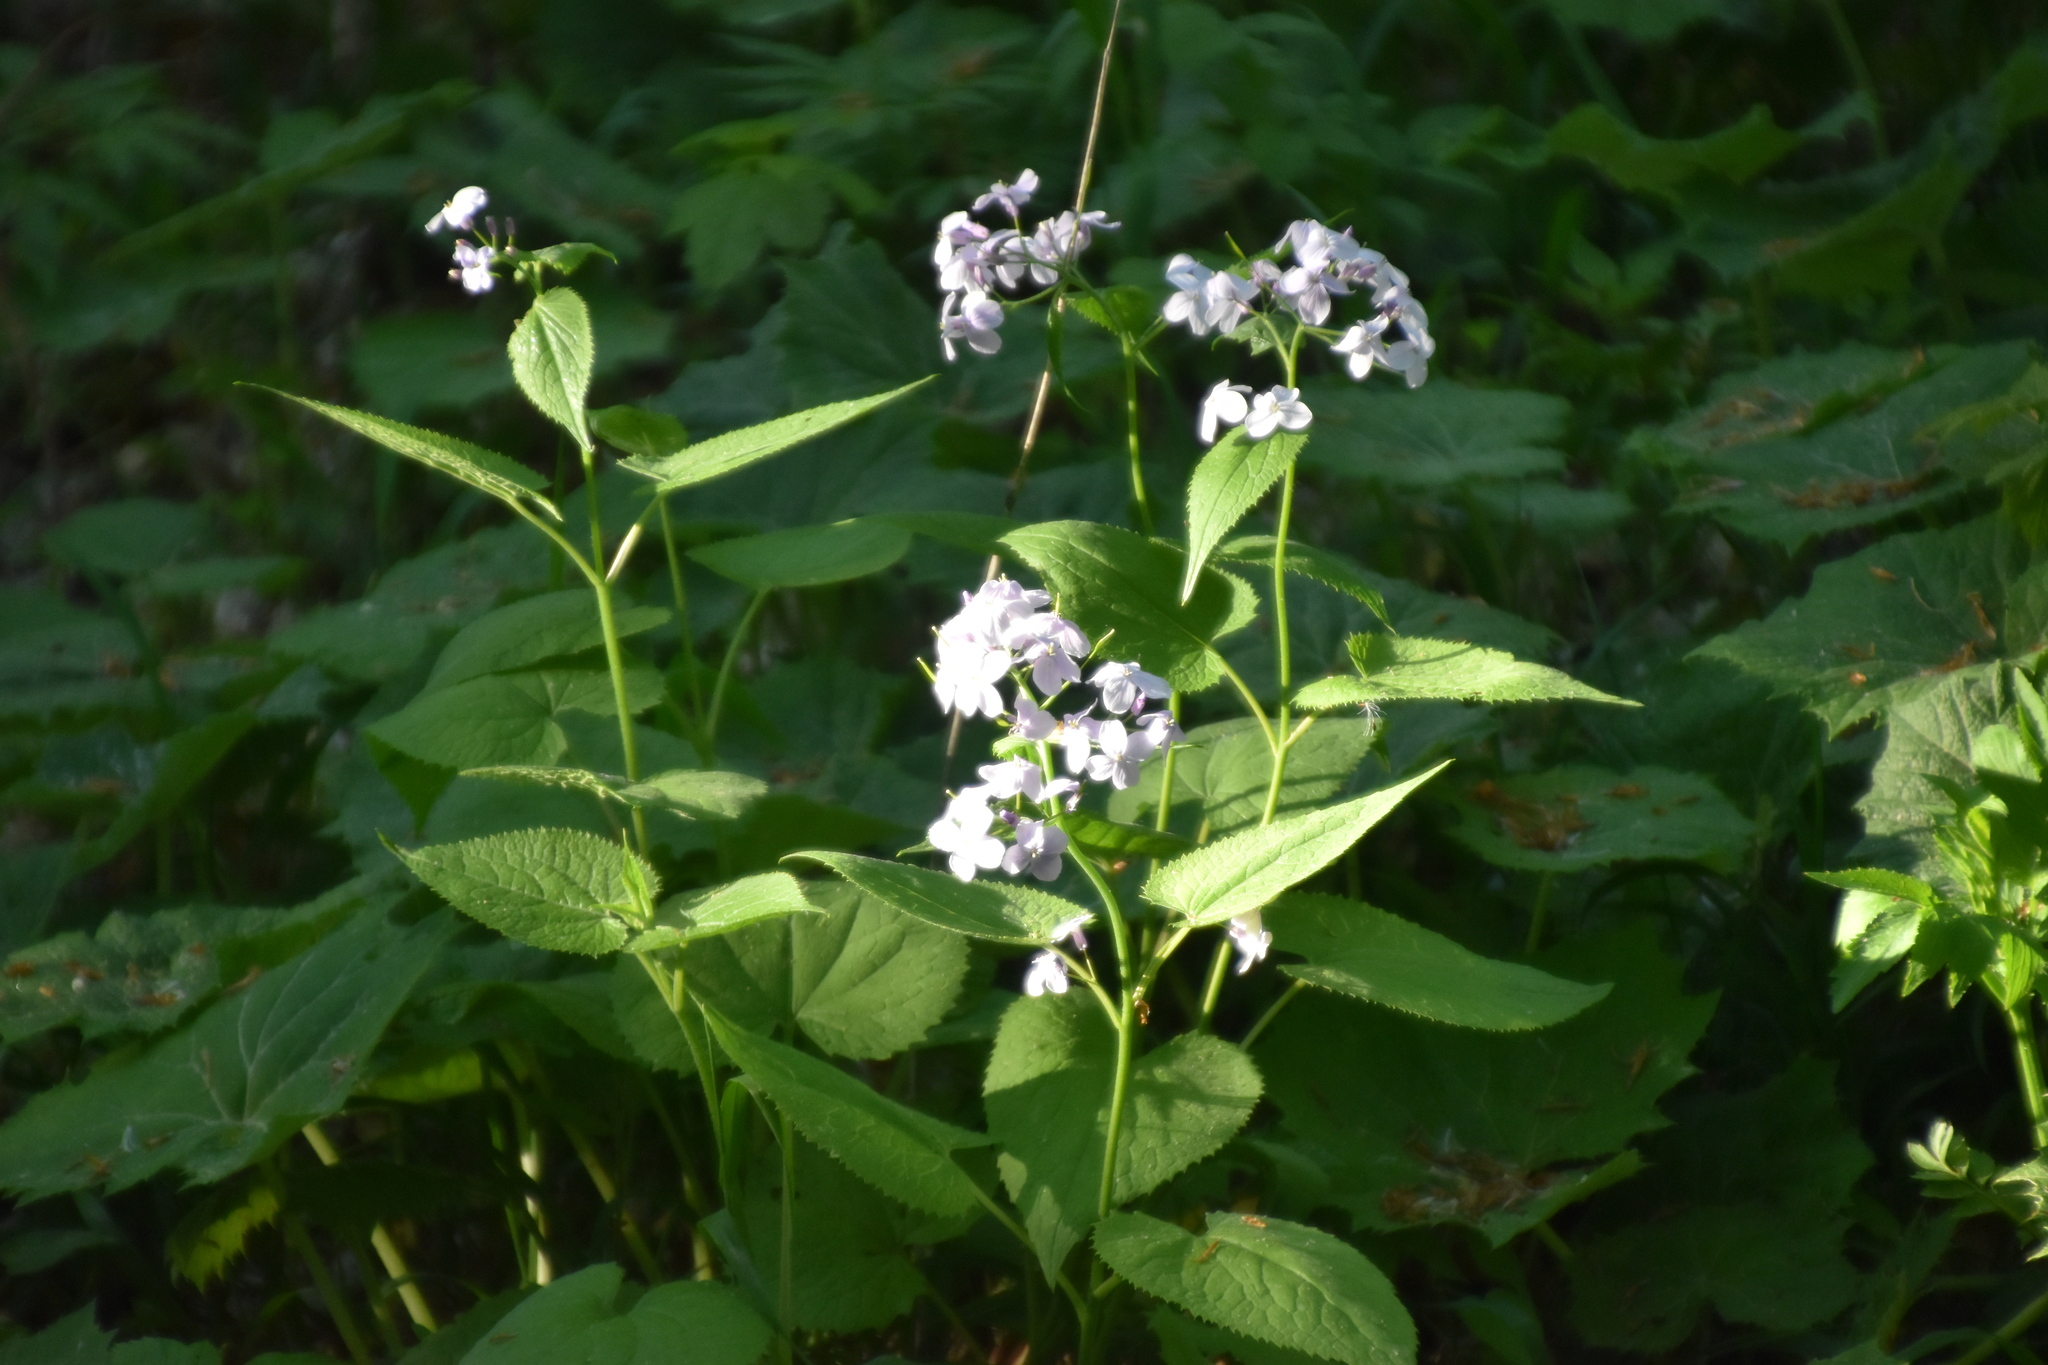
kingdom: Plantae
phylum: Tracheophyta
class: Magnoliopsida
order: Brassicales
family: Brassicaceae
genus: Lunaria
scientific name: Lunaria rediviva
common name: Perennial honesty
